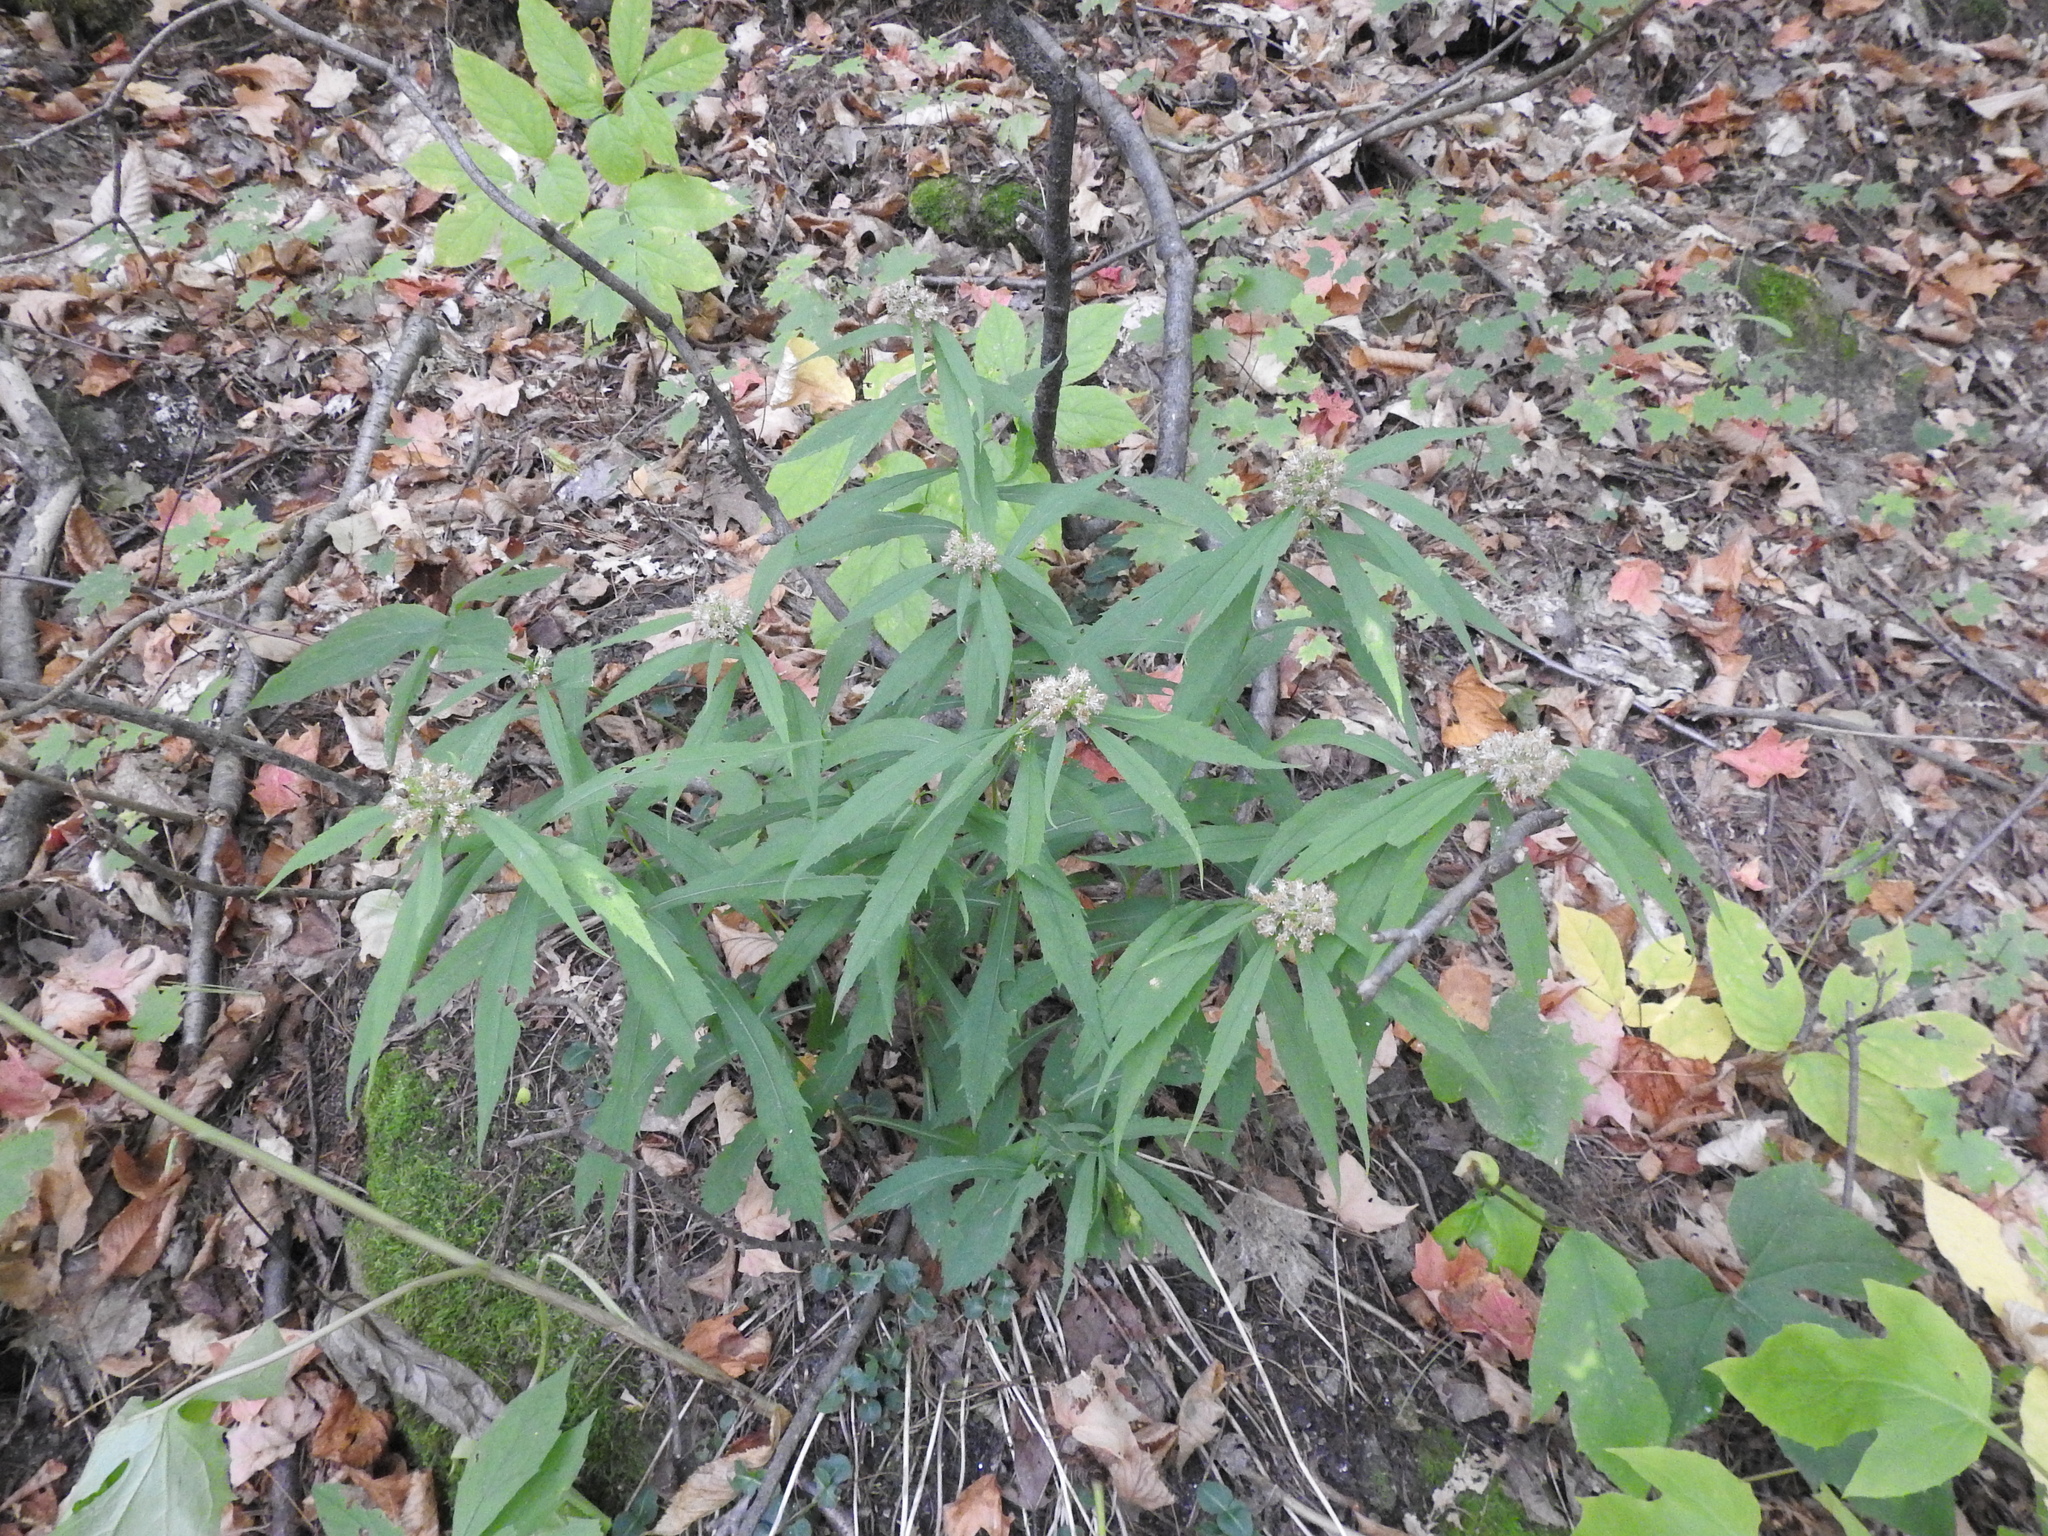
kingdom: Plantae
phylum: Tracheophyta
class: Magnoliopsida
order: Asterales
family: Asteraceae
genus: Solidago
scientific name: Solidago caesia
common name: Woodland goldenrod
